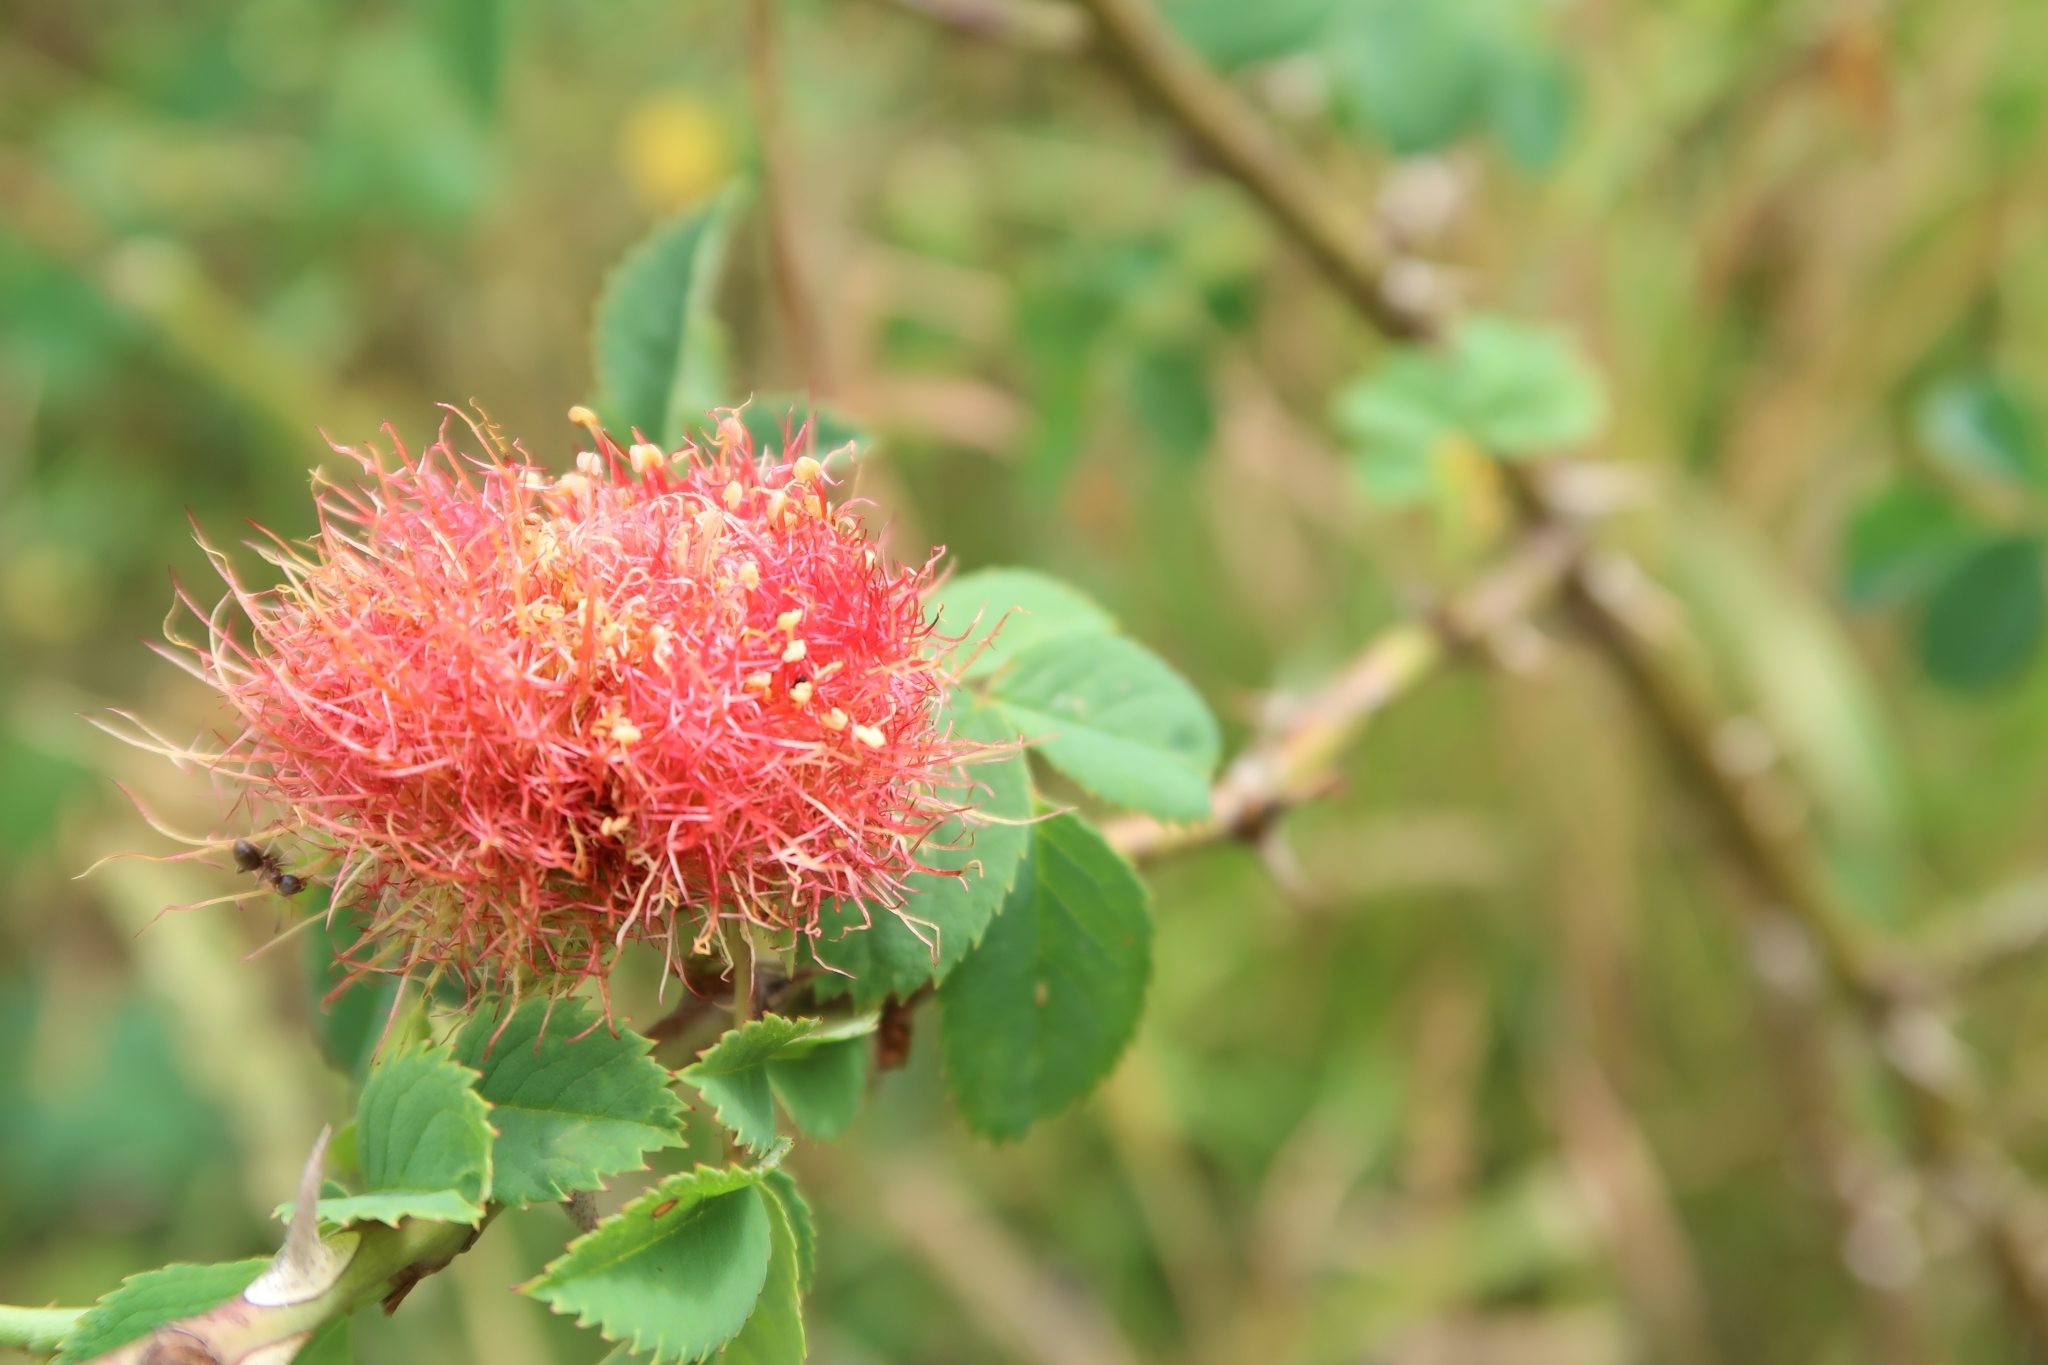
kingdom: Animalia
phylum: Arthropoda
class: Insecta
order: Hymenoptera
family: Cynipidae
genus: Diplolepis
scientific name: Diplolepis rosae
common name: Bedeguar gall
